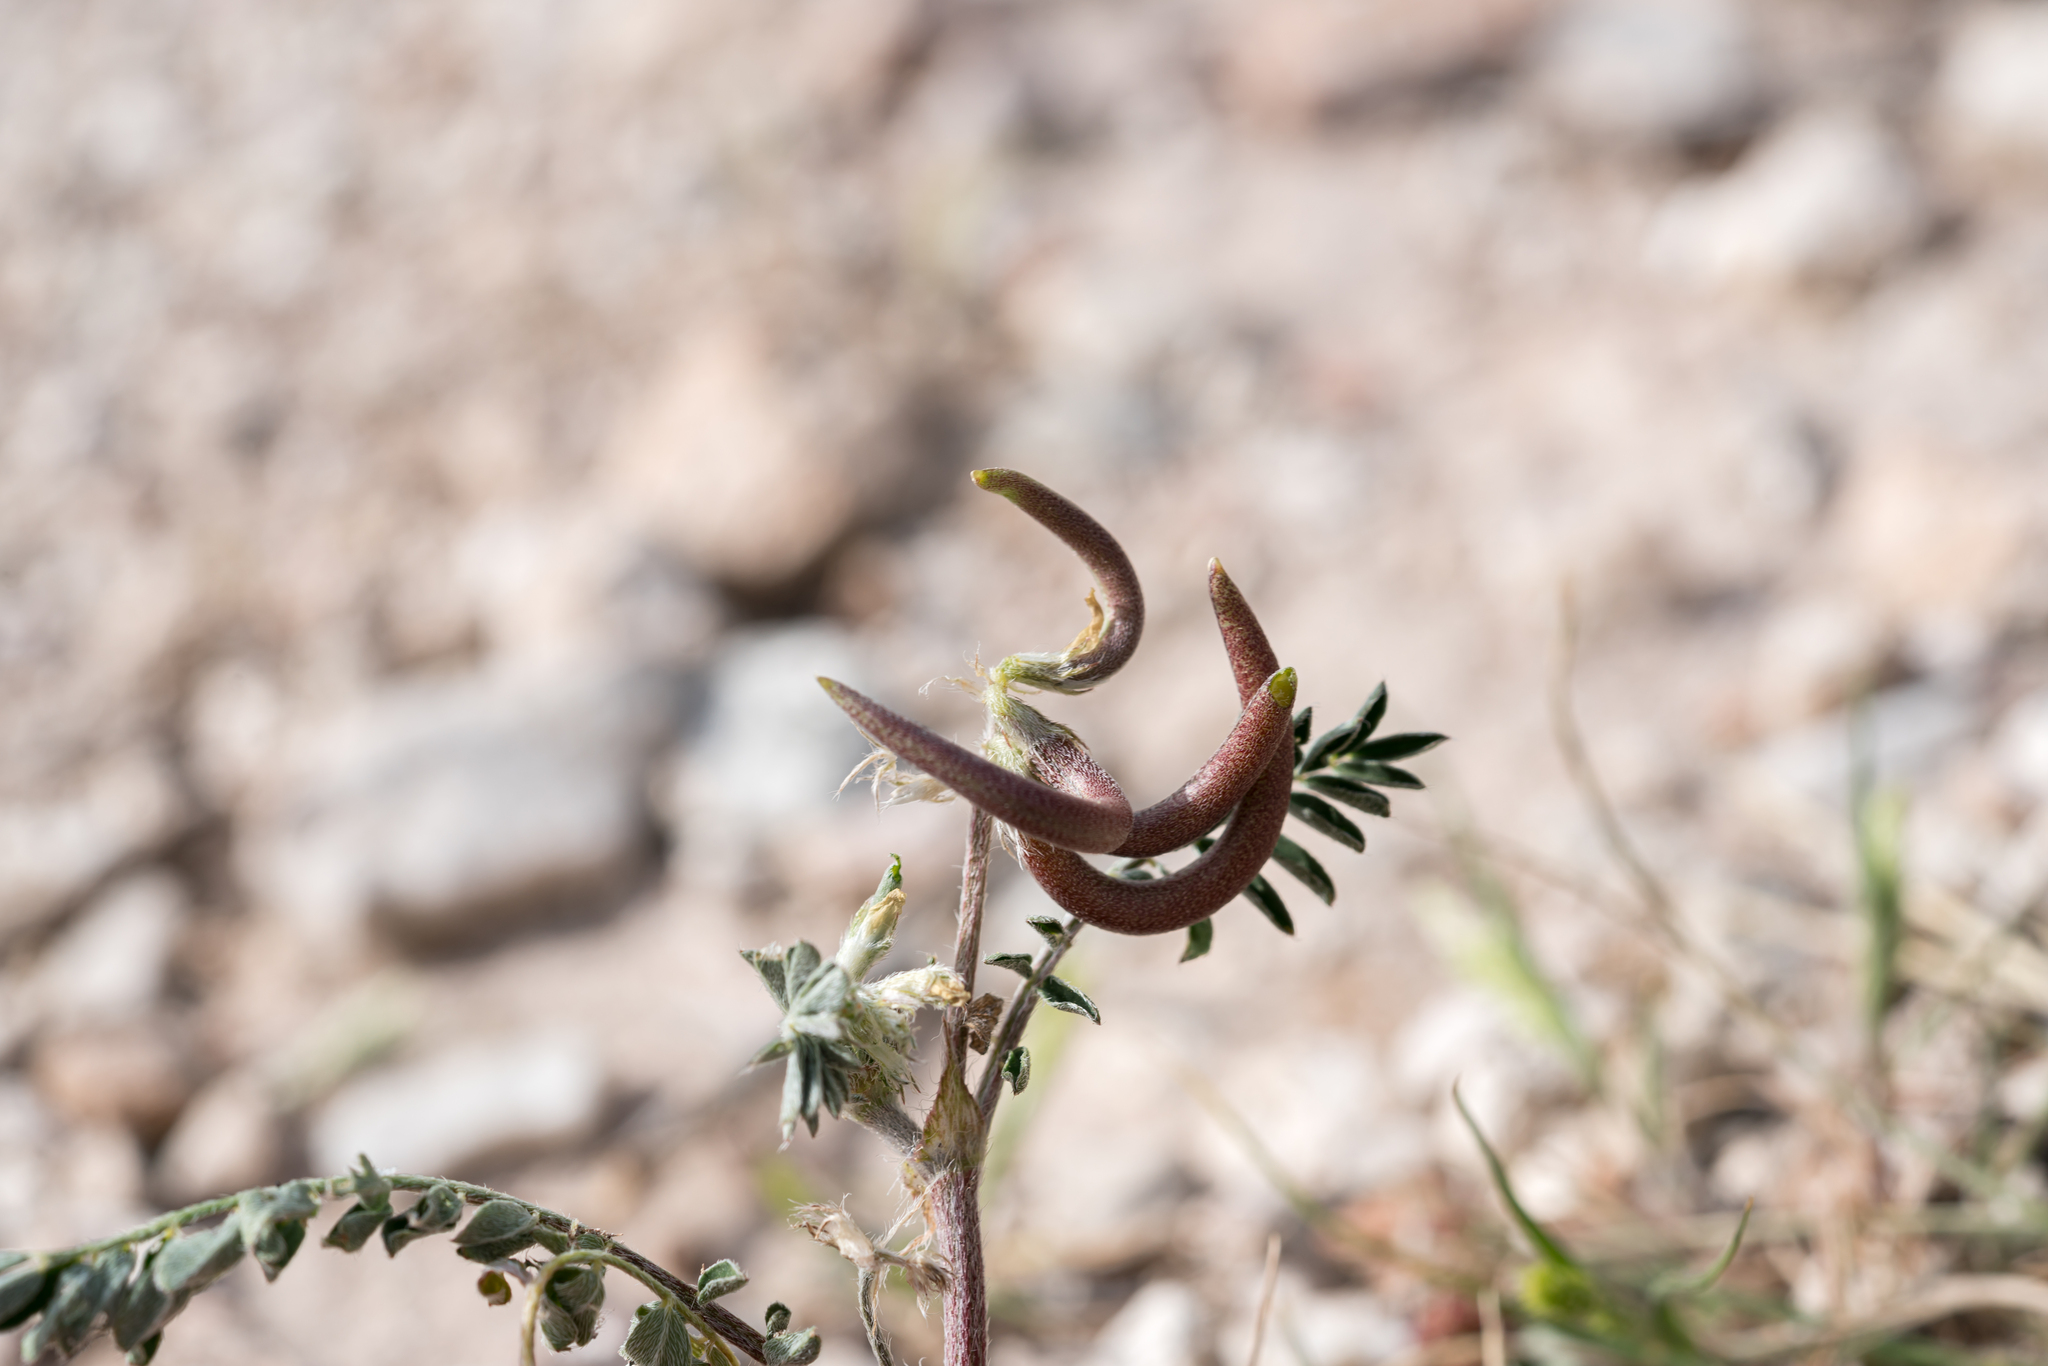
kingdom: Plantae
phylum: Tracheophyta
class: Magnoliopsida
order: Fabales
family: Fabaceae
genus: Astragalus
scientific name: Astragalus hamosus
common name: European milkvetch
